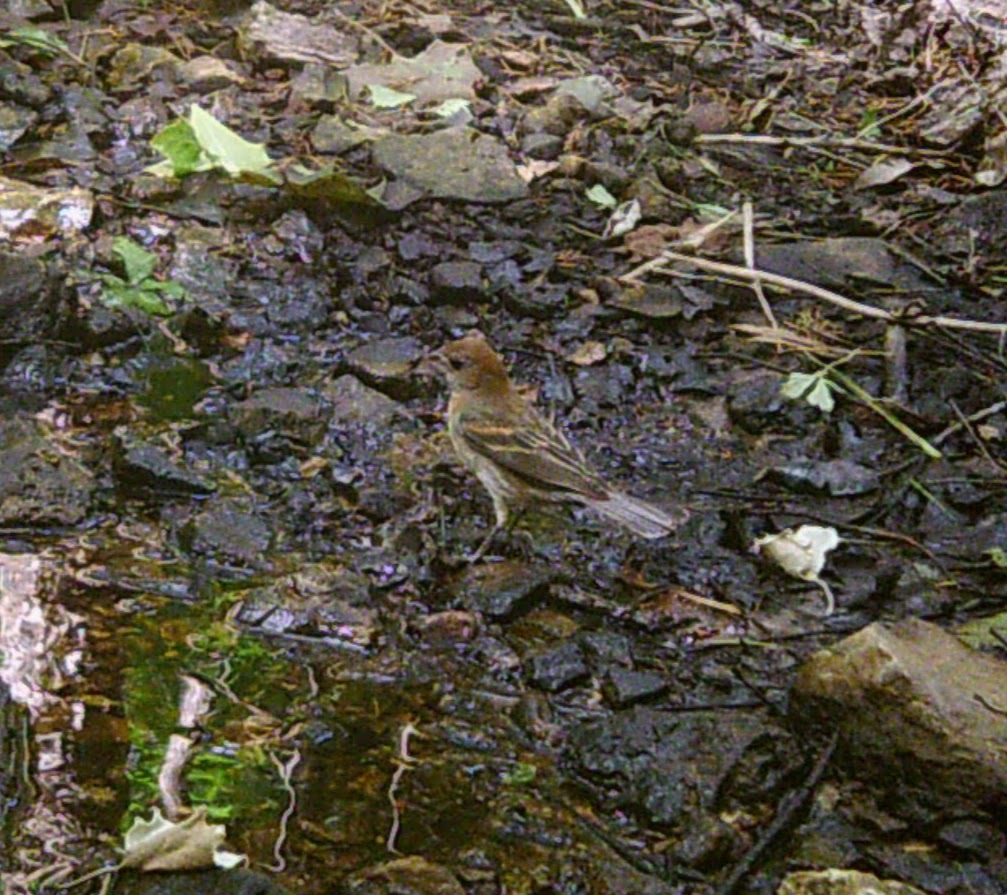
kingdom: Animalia
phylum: Chordata
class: Aves
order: Passeriformes
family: Cardinalidae
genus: Passerina
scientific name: Passerina caerulea
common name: Blue grosbeak
